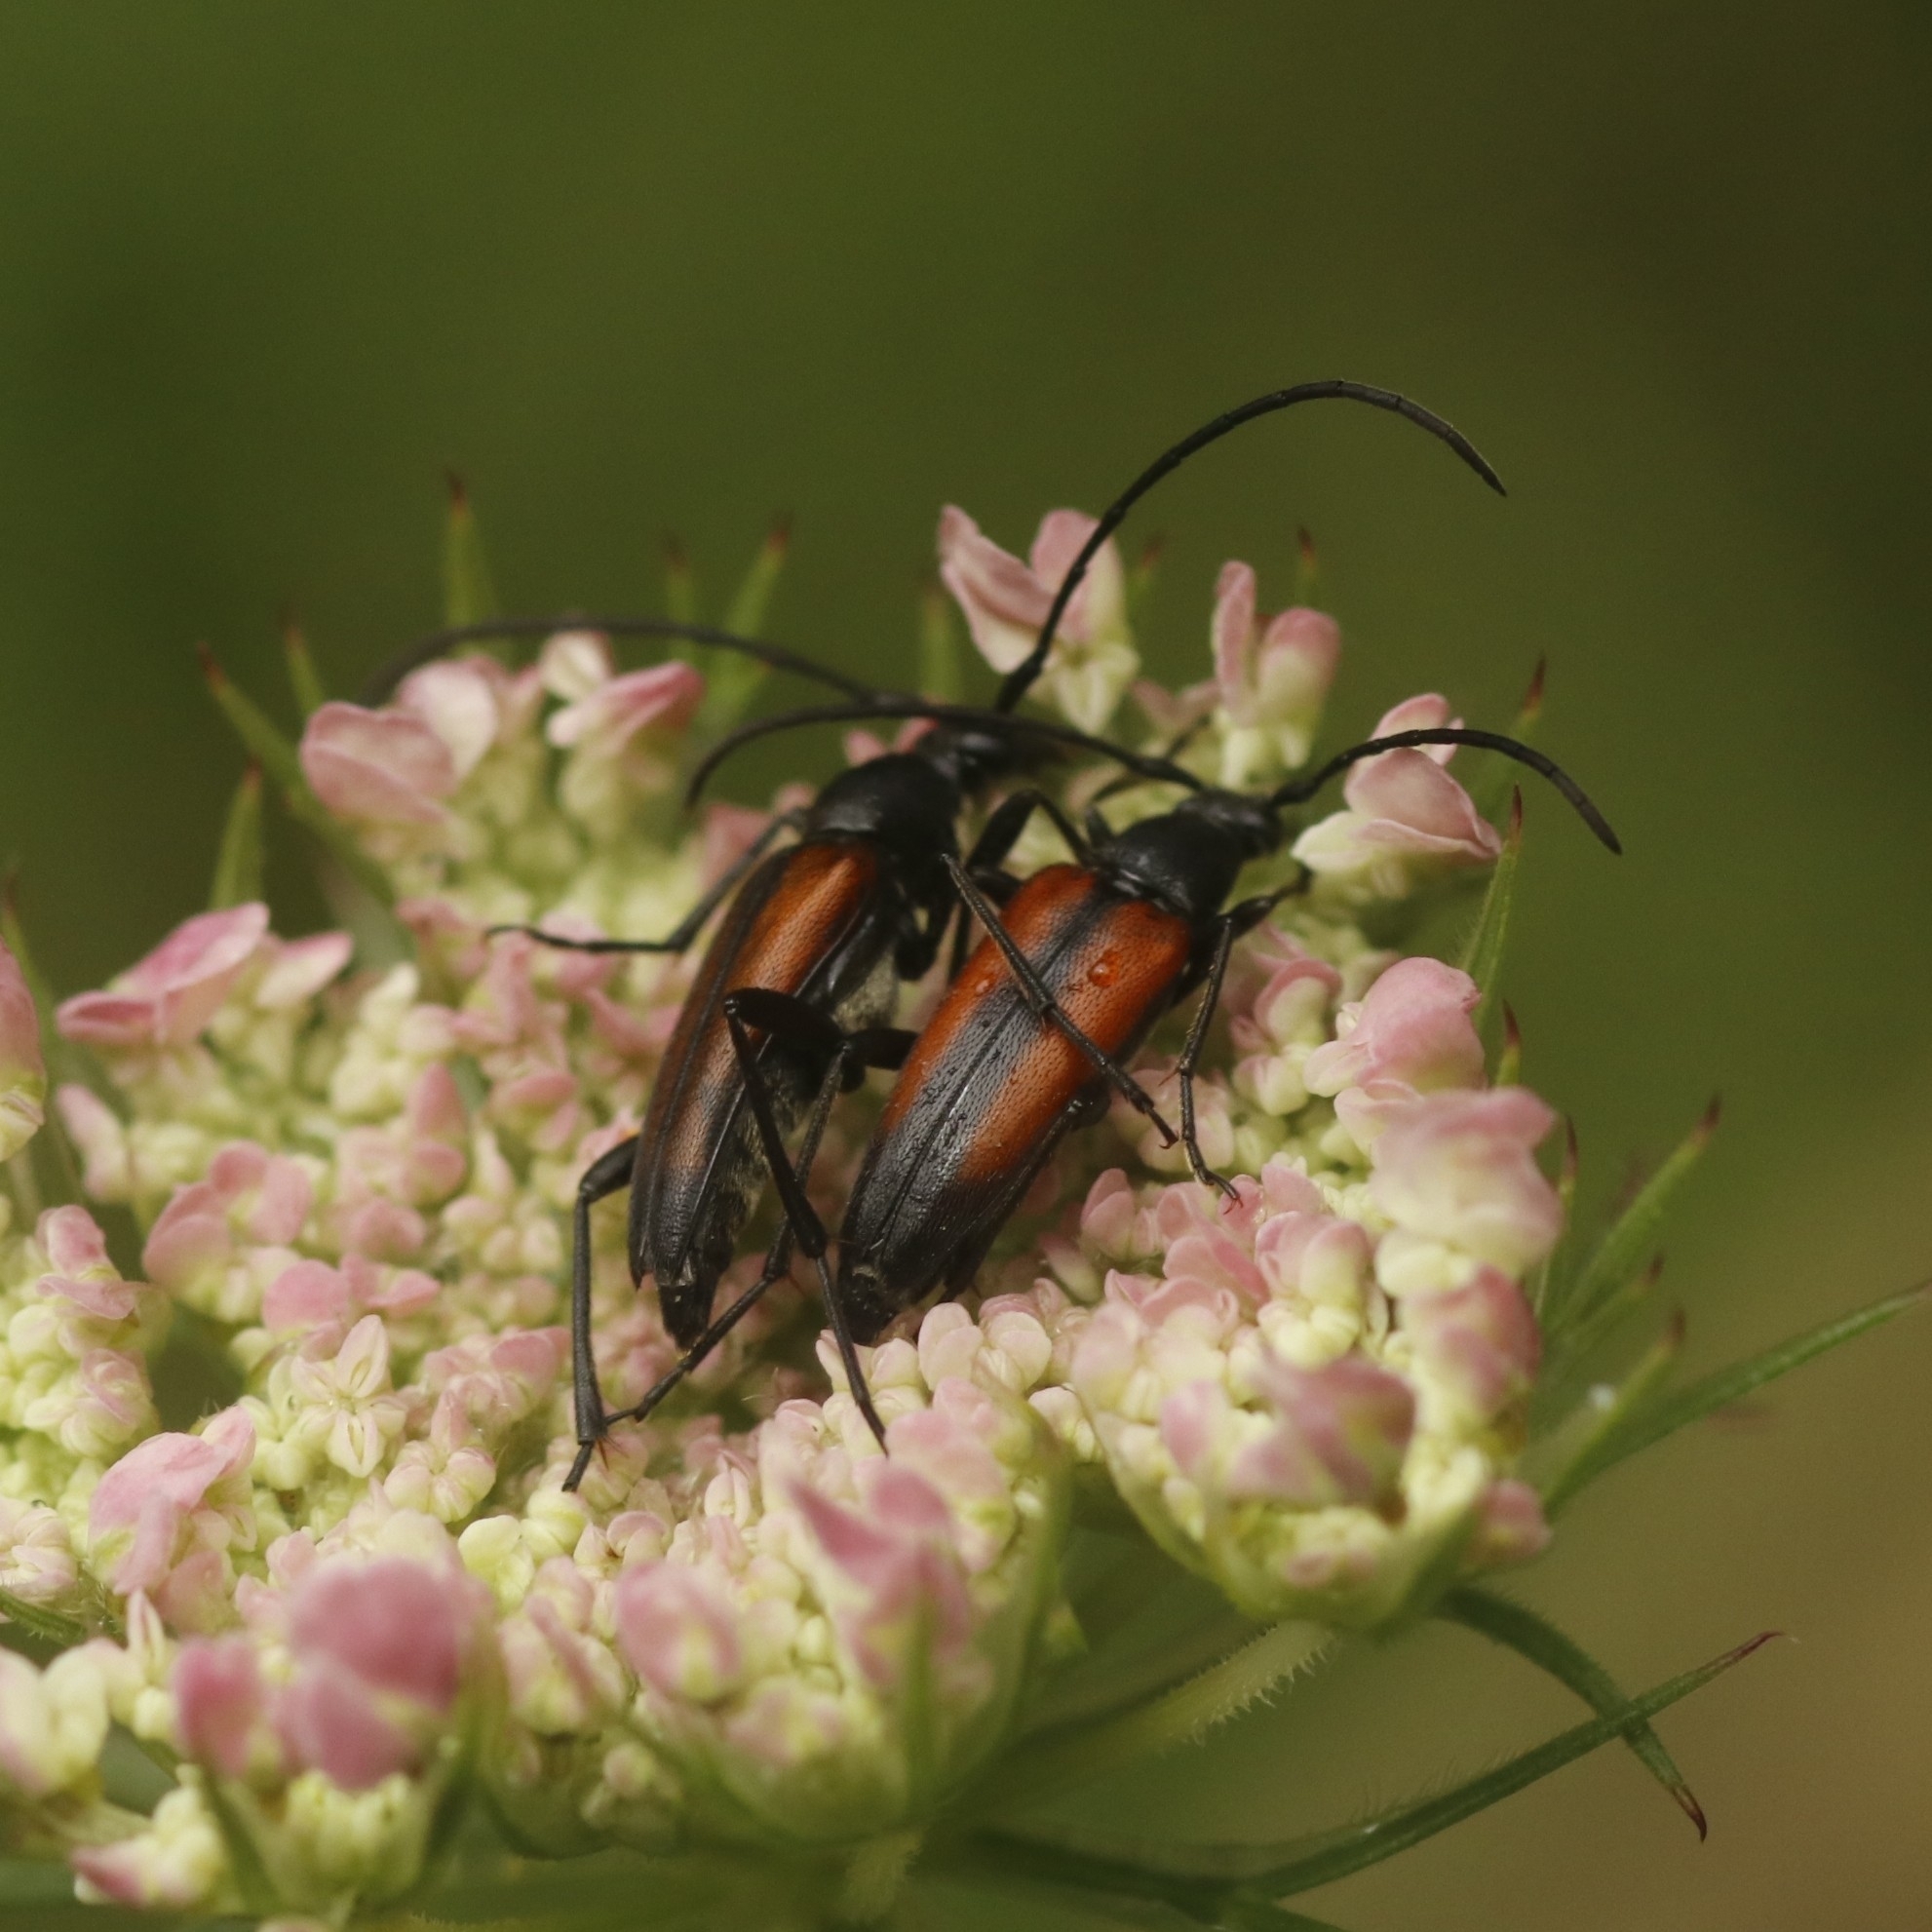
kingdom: Animalia
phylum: Arthropoda
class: Insecta
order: Coleoptera
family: Cerambycidae
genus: Stenurella
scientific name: Stenurella melanura
